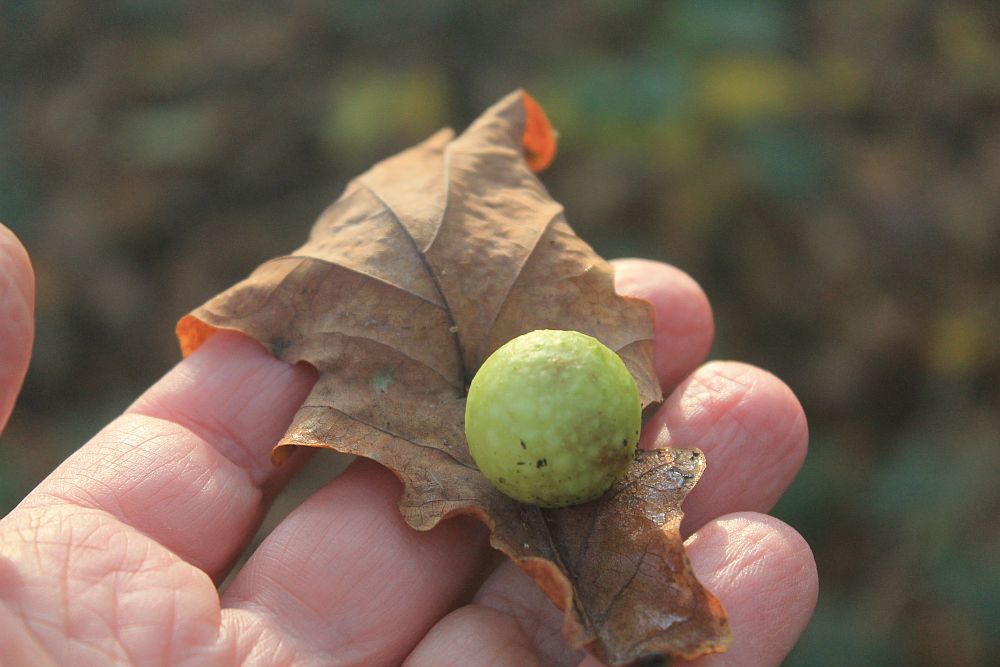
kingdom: Animalia
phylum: Arthropoda
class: Insecta
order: Hymenoptera
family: Cynipidae
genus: Cynips
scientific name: Cynips quercusfolii
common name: Cherry gall
